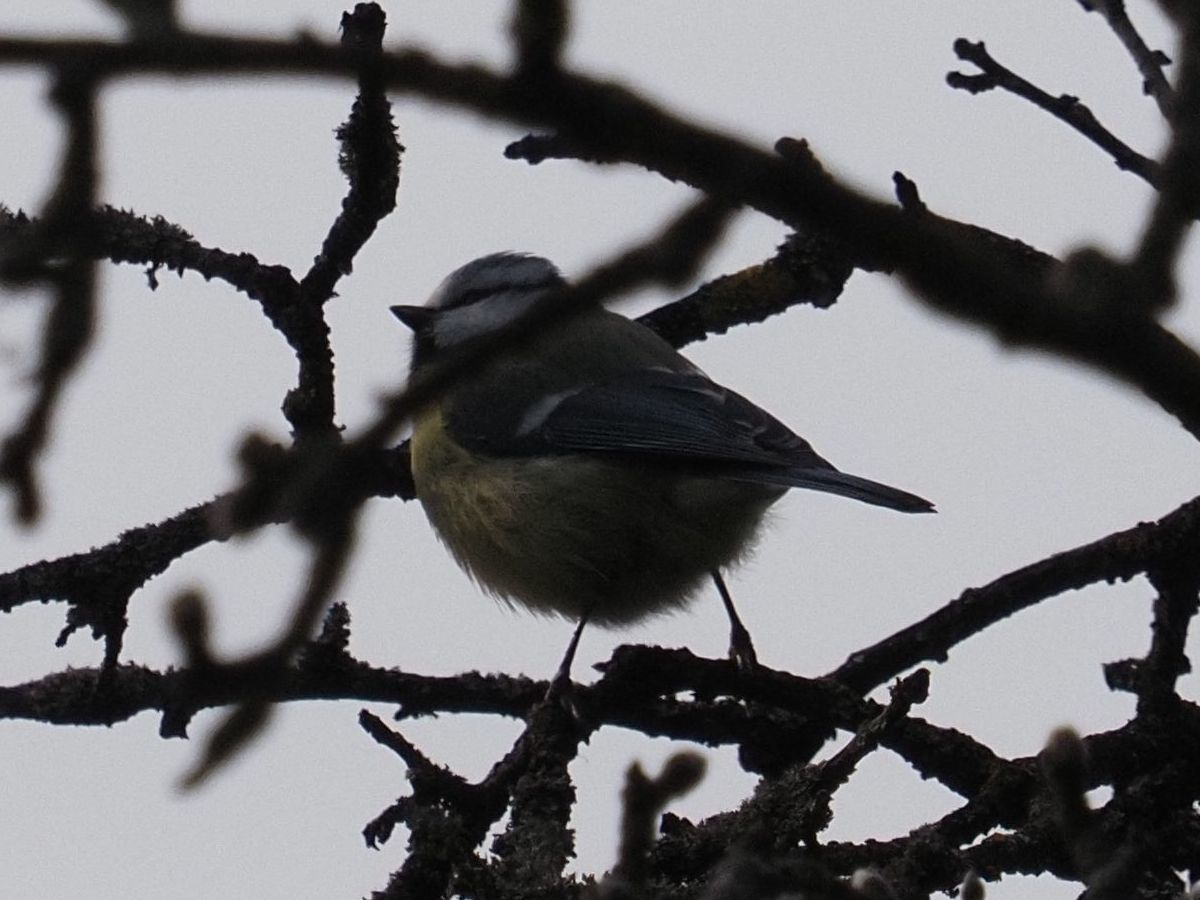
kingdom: Animalia
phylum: Chordata
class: Aves
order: Passeriformes
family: Paridae
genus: Cyanistes
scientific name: Cyanistes caeruleus
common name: Eurasian blue tit
